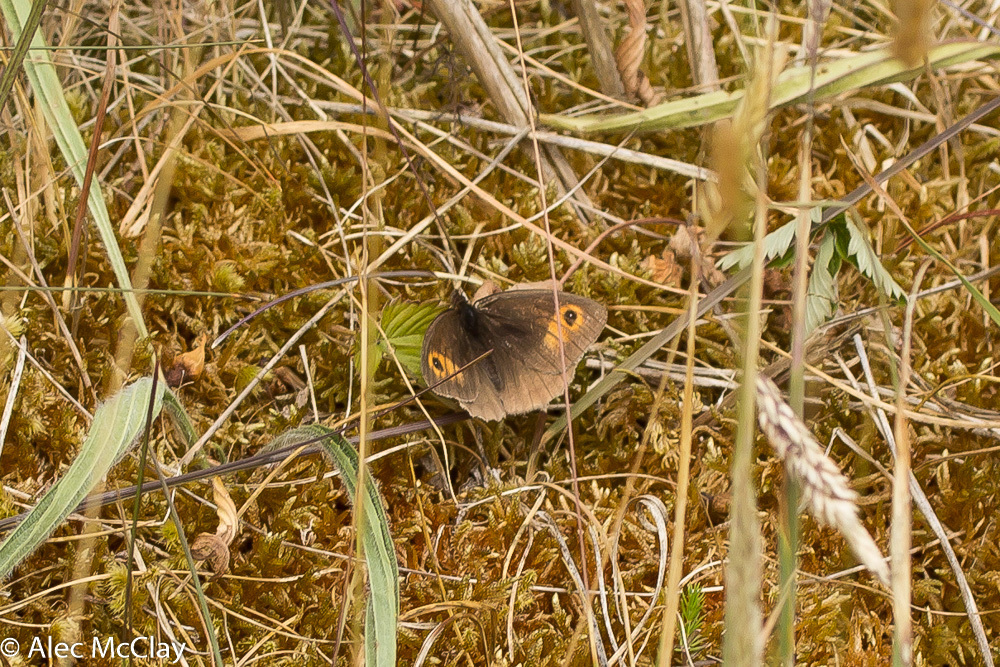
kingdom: Animalia
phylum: Arthropoda
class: Insecta
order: Lepidoptera
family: Nymphalidae
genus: Maniola
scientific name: Maniola jurtina
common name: Meadow brown
